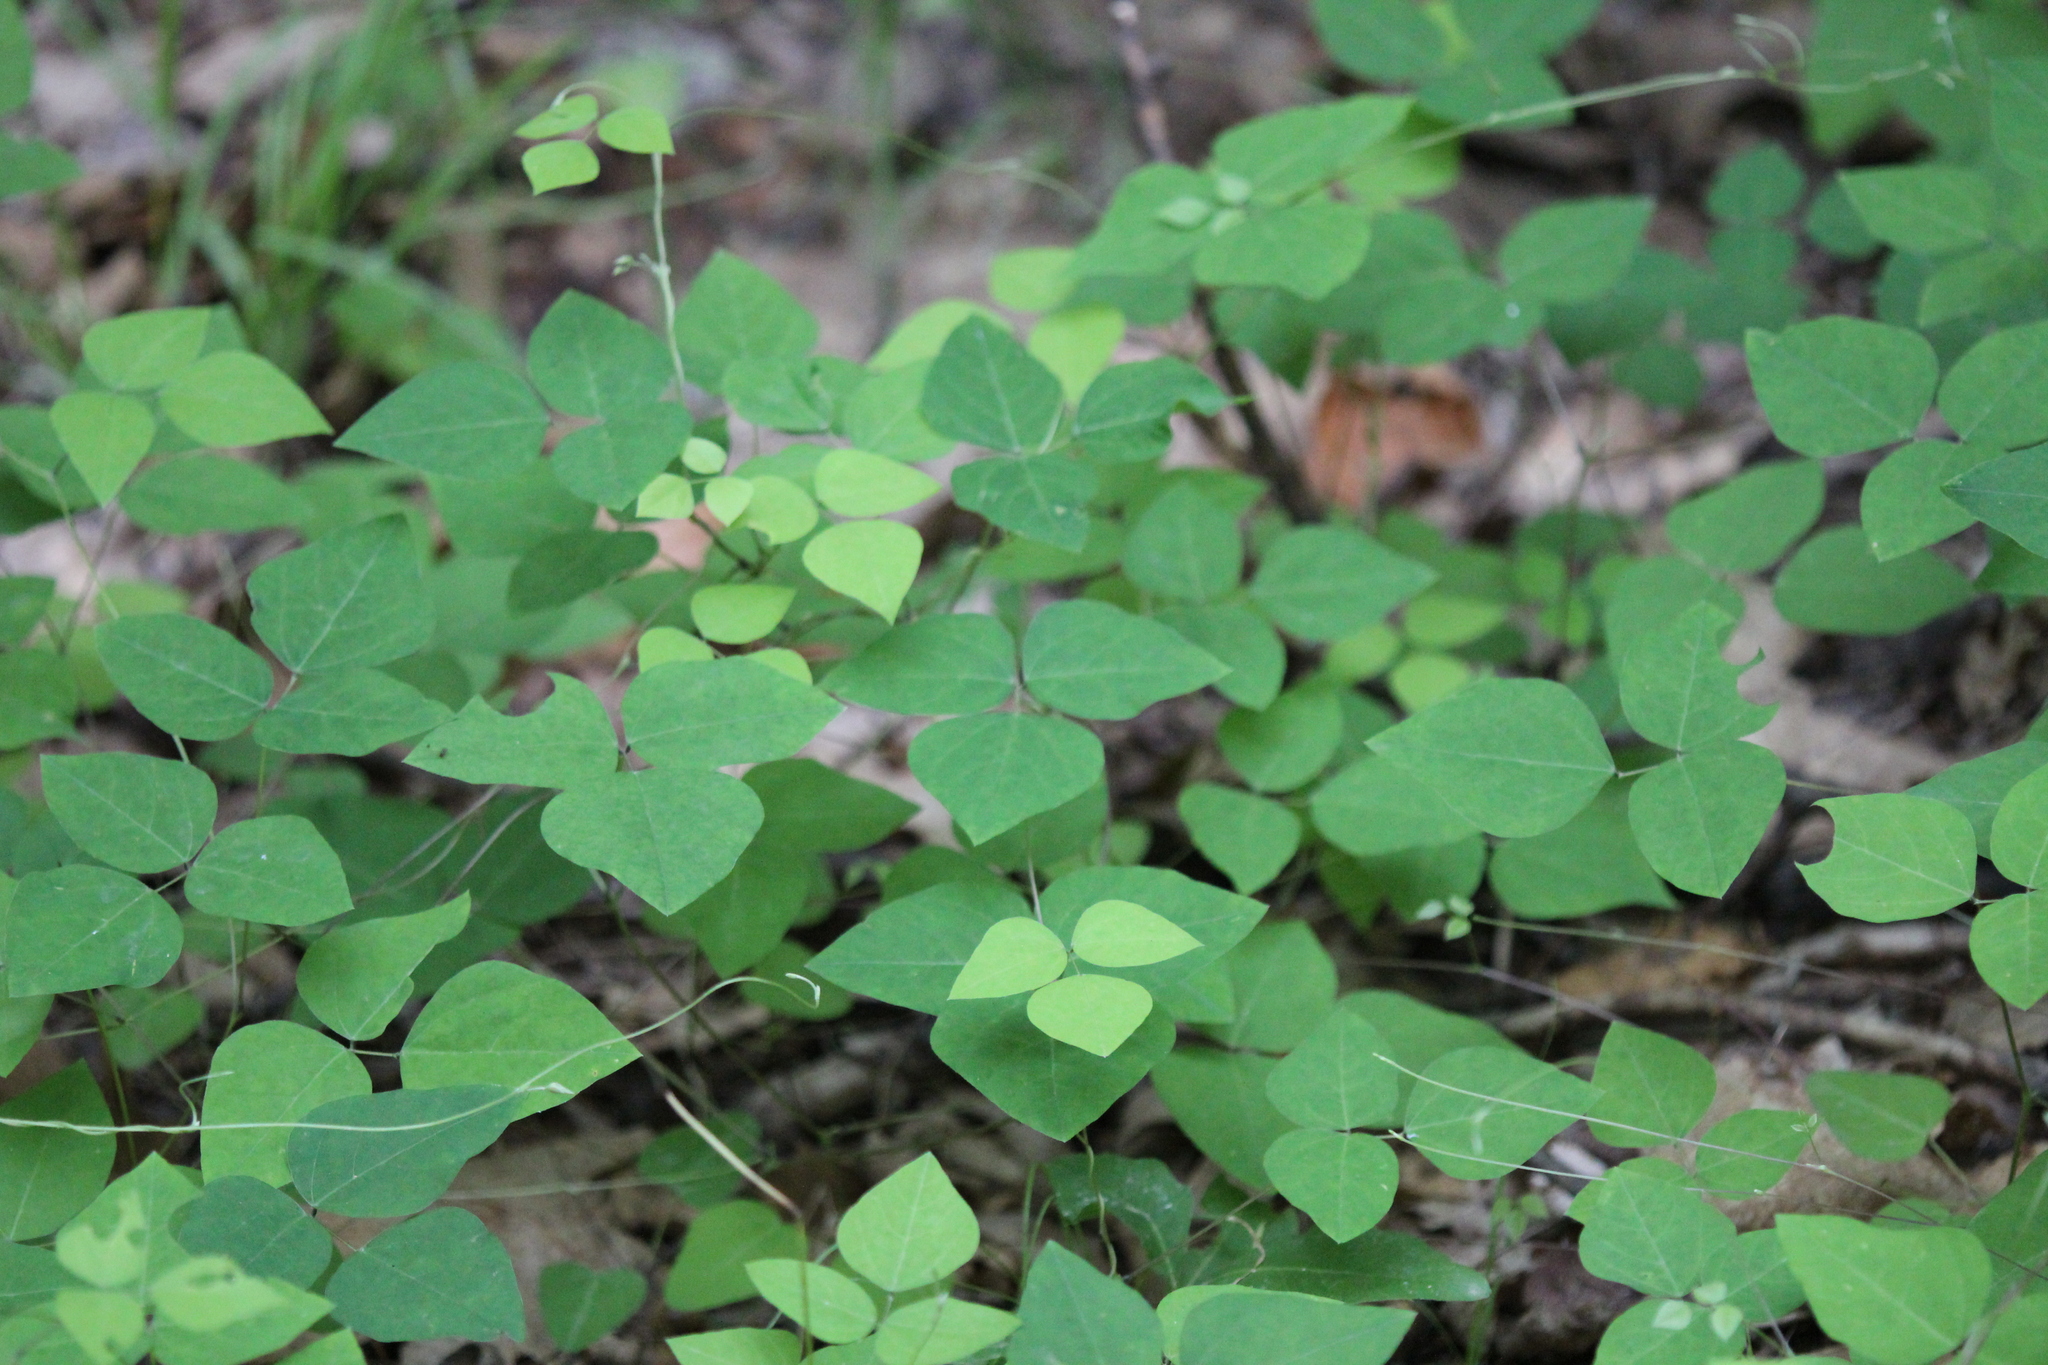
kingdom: Plantae
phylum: Tracheophyta
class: Magnoliopsida
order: Fabales
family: Fabaceae
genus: Amphicarpaea
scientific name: Amphicarpaea bracteata
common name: American hog peanut
